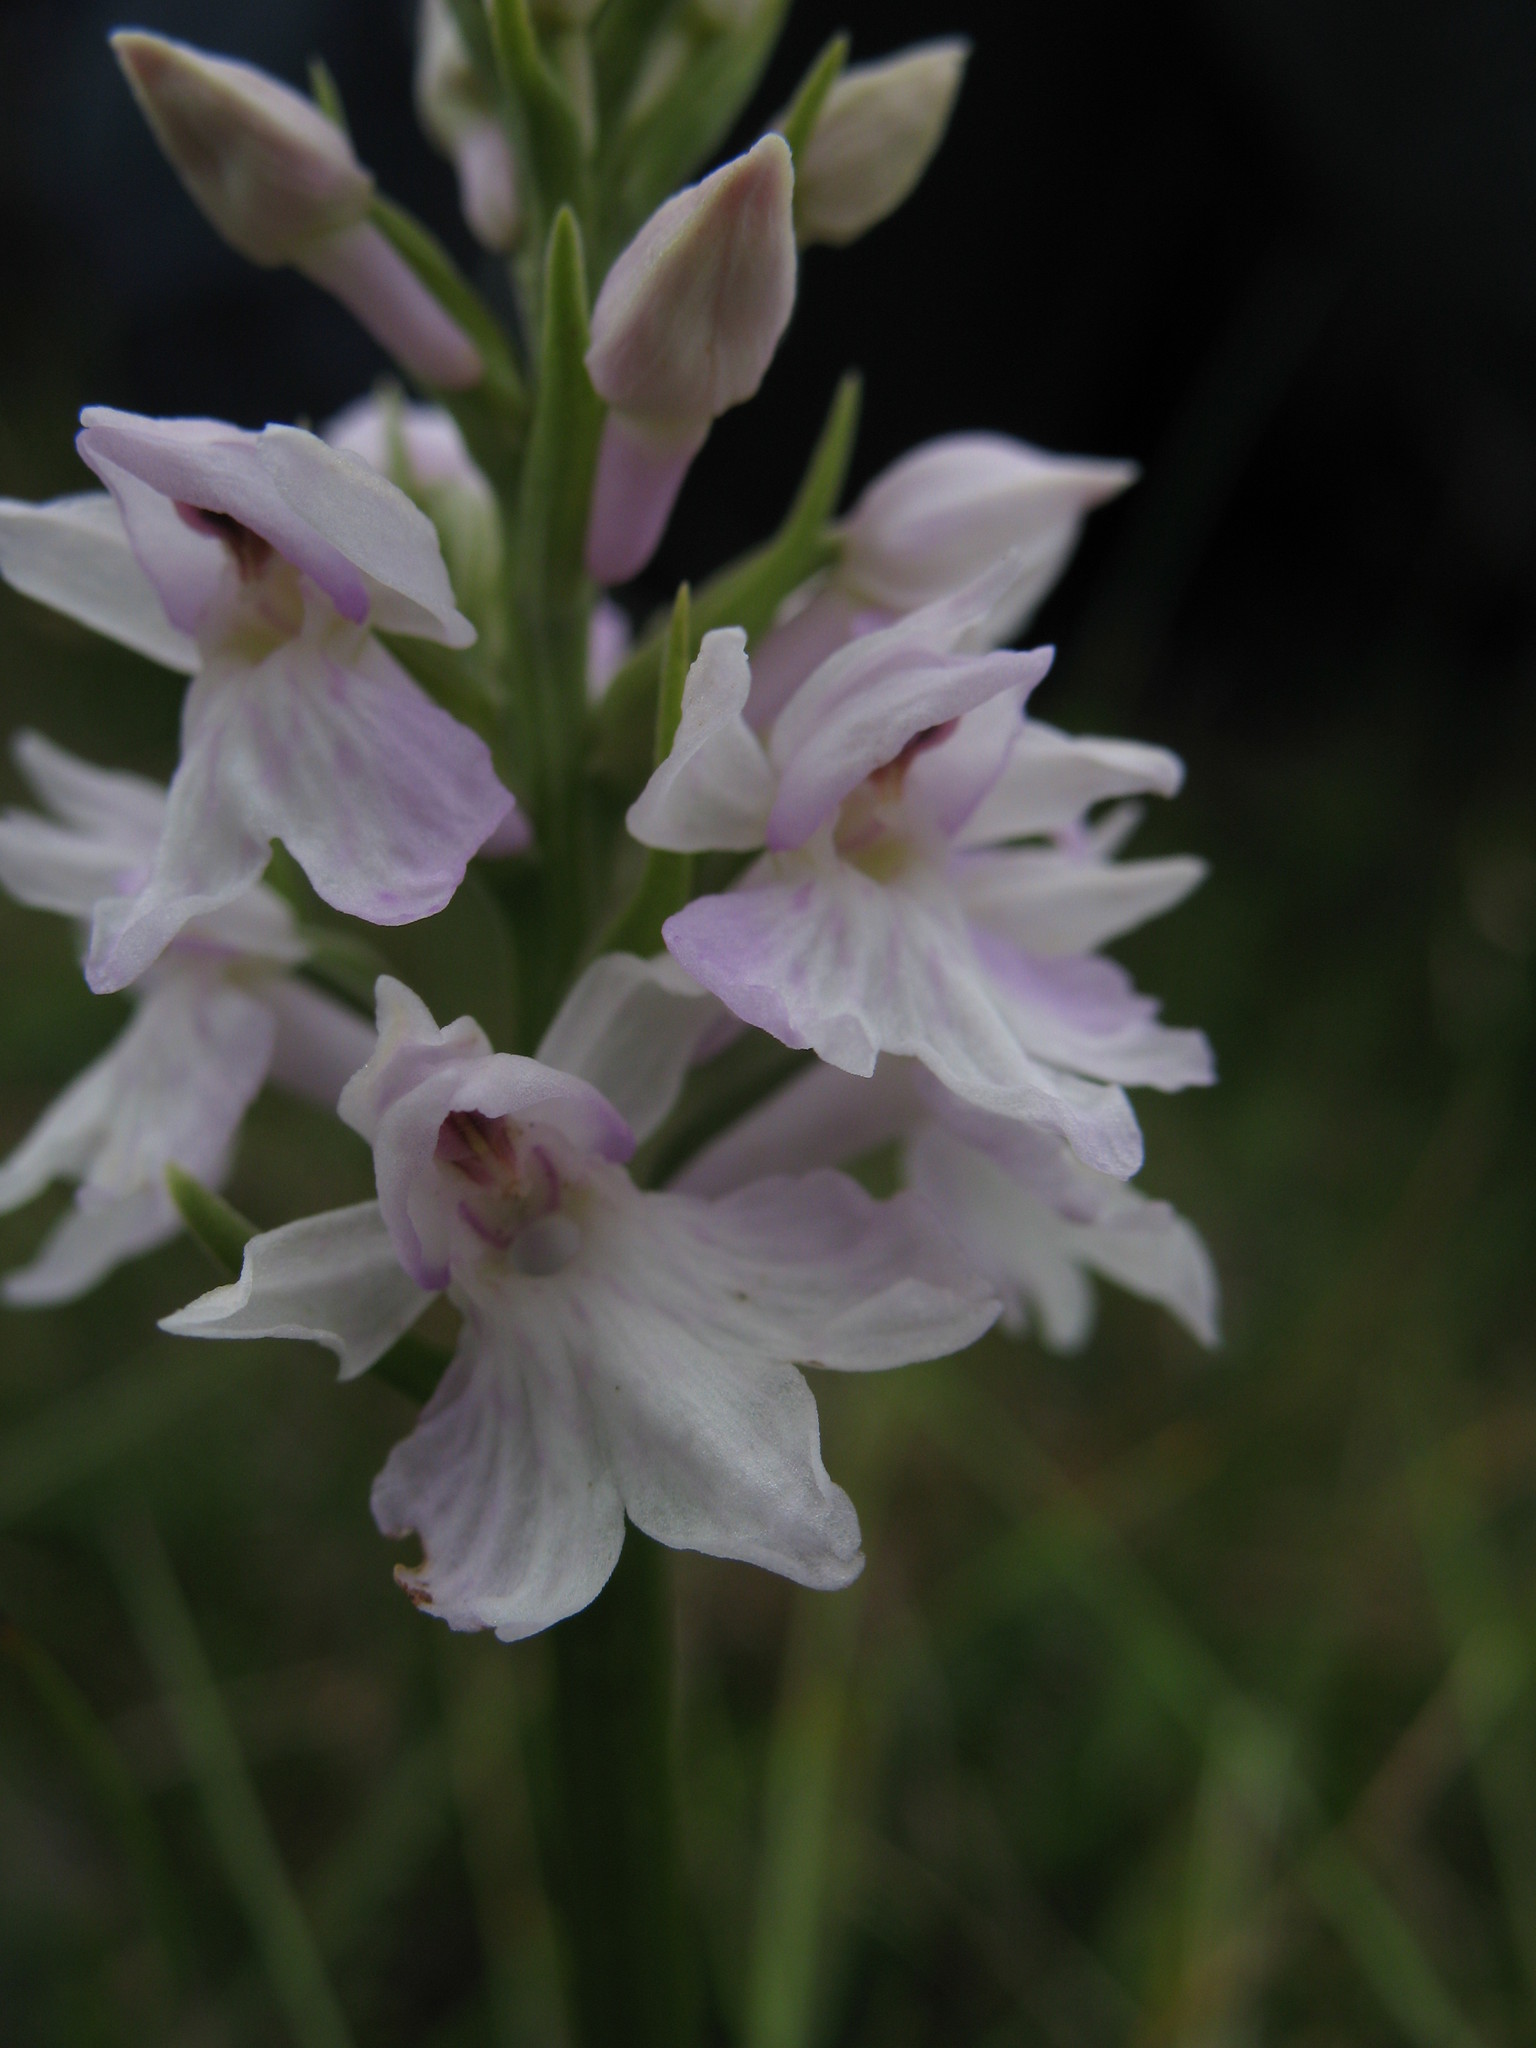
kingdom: Plantae
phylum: Tracheophyta
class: Liliopsida
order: Asparagales
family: Orchidaceae
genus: Dactylorhiza
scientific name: Dactylorhiza maculata
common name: Heath spotted-orchid
